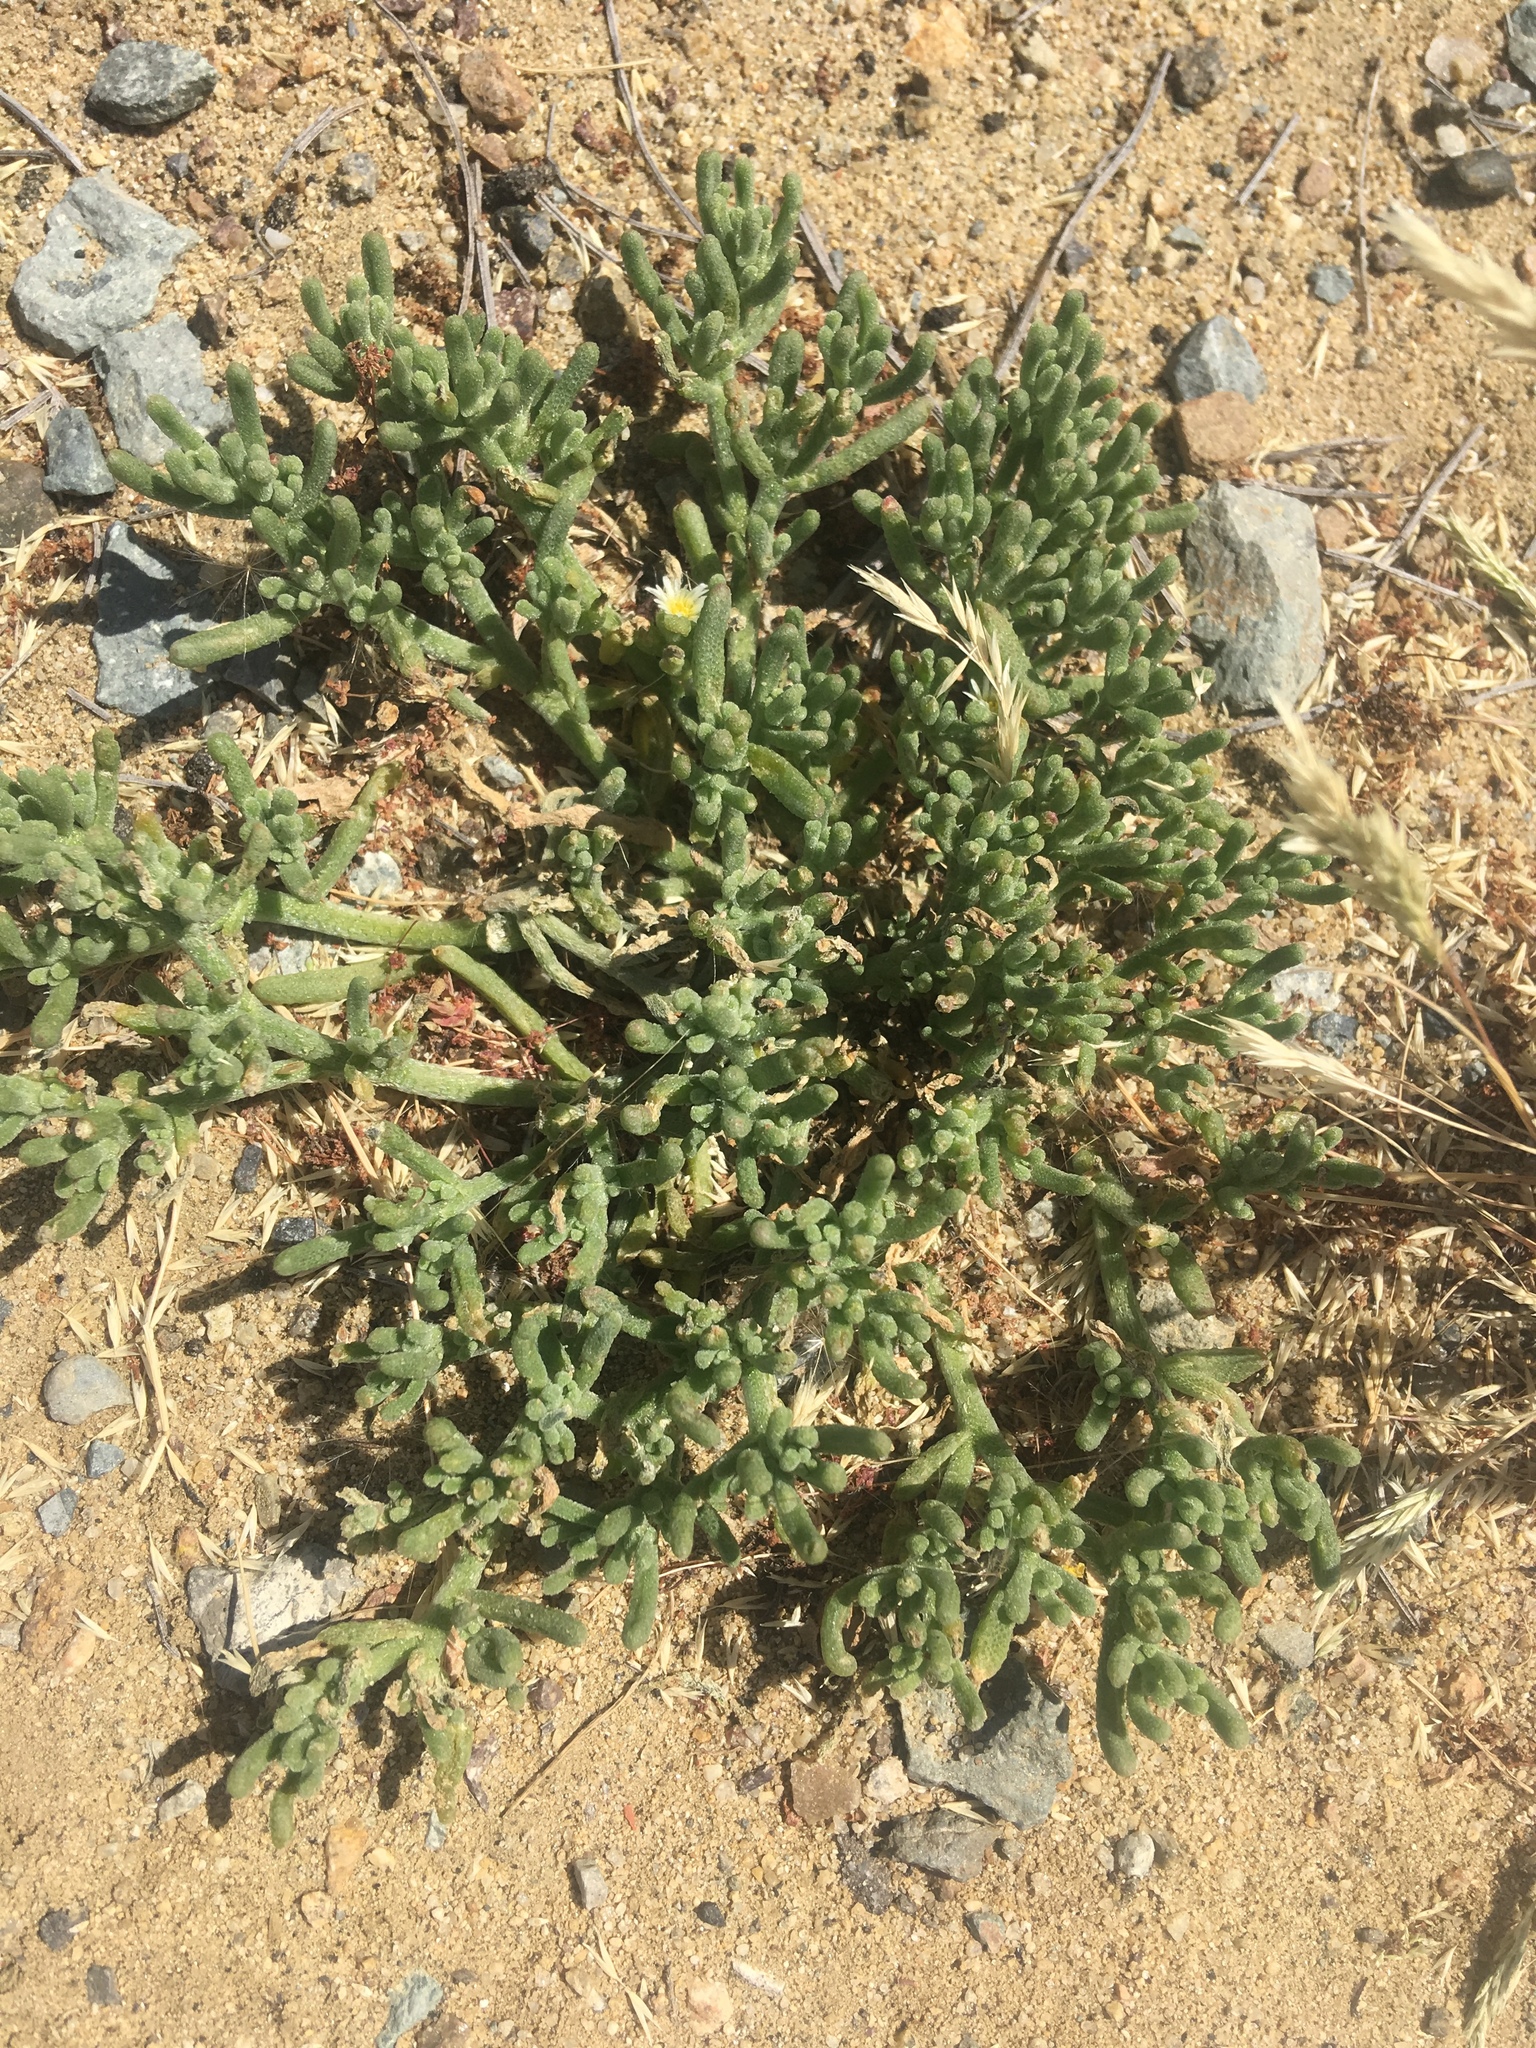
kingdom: Plantae
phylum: Tracheophyta
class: Magnoliopsida
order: Caryophyllales
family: Aizoaceae
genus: Mesembryanthemum
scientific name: Mesembryanthemum nodiflorum
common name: Slenderleaf iceplant
